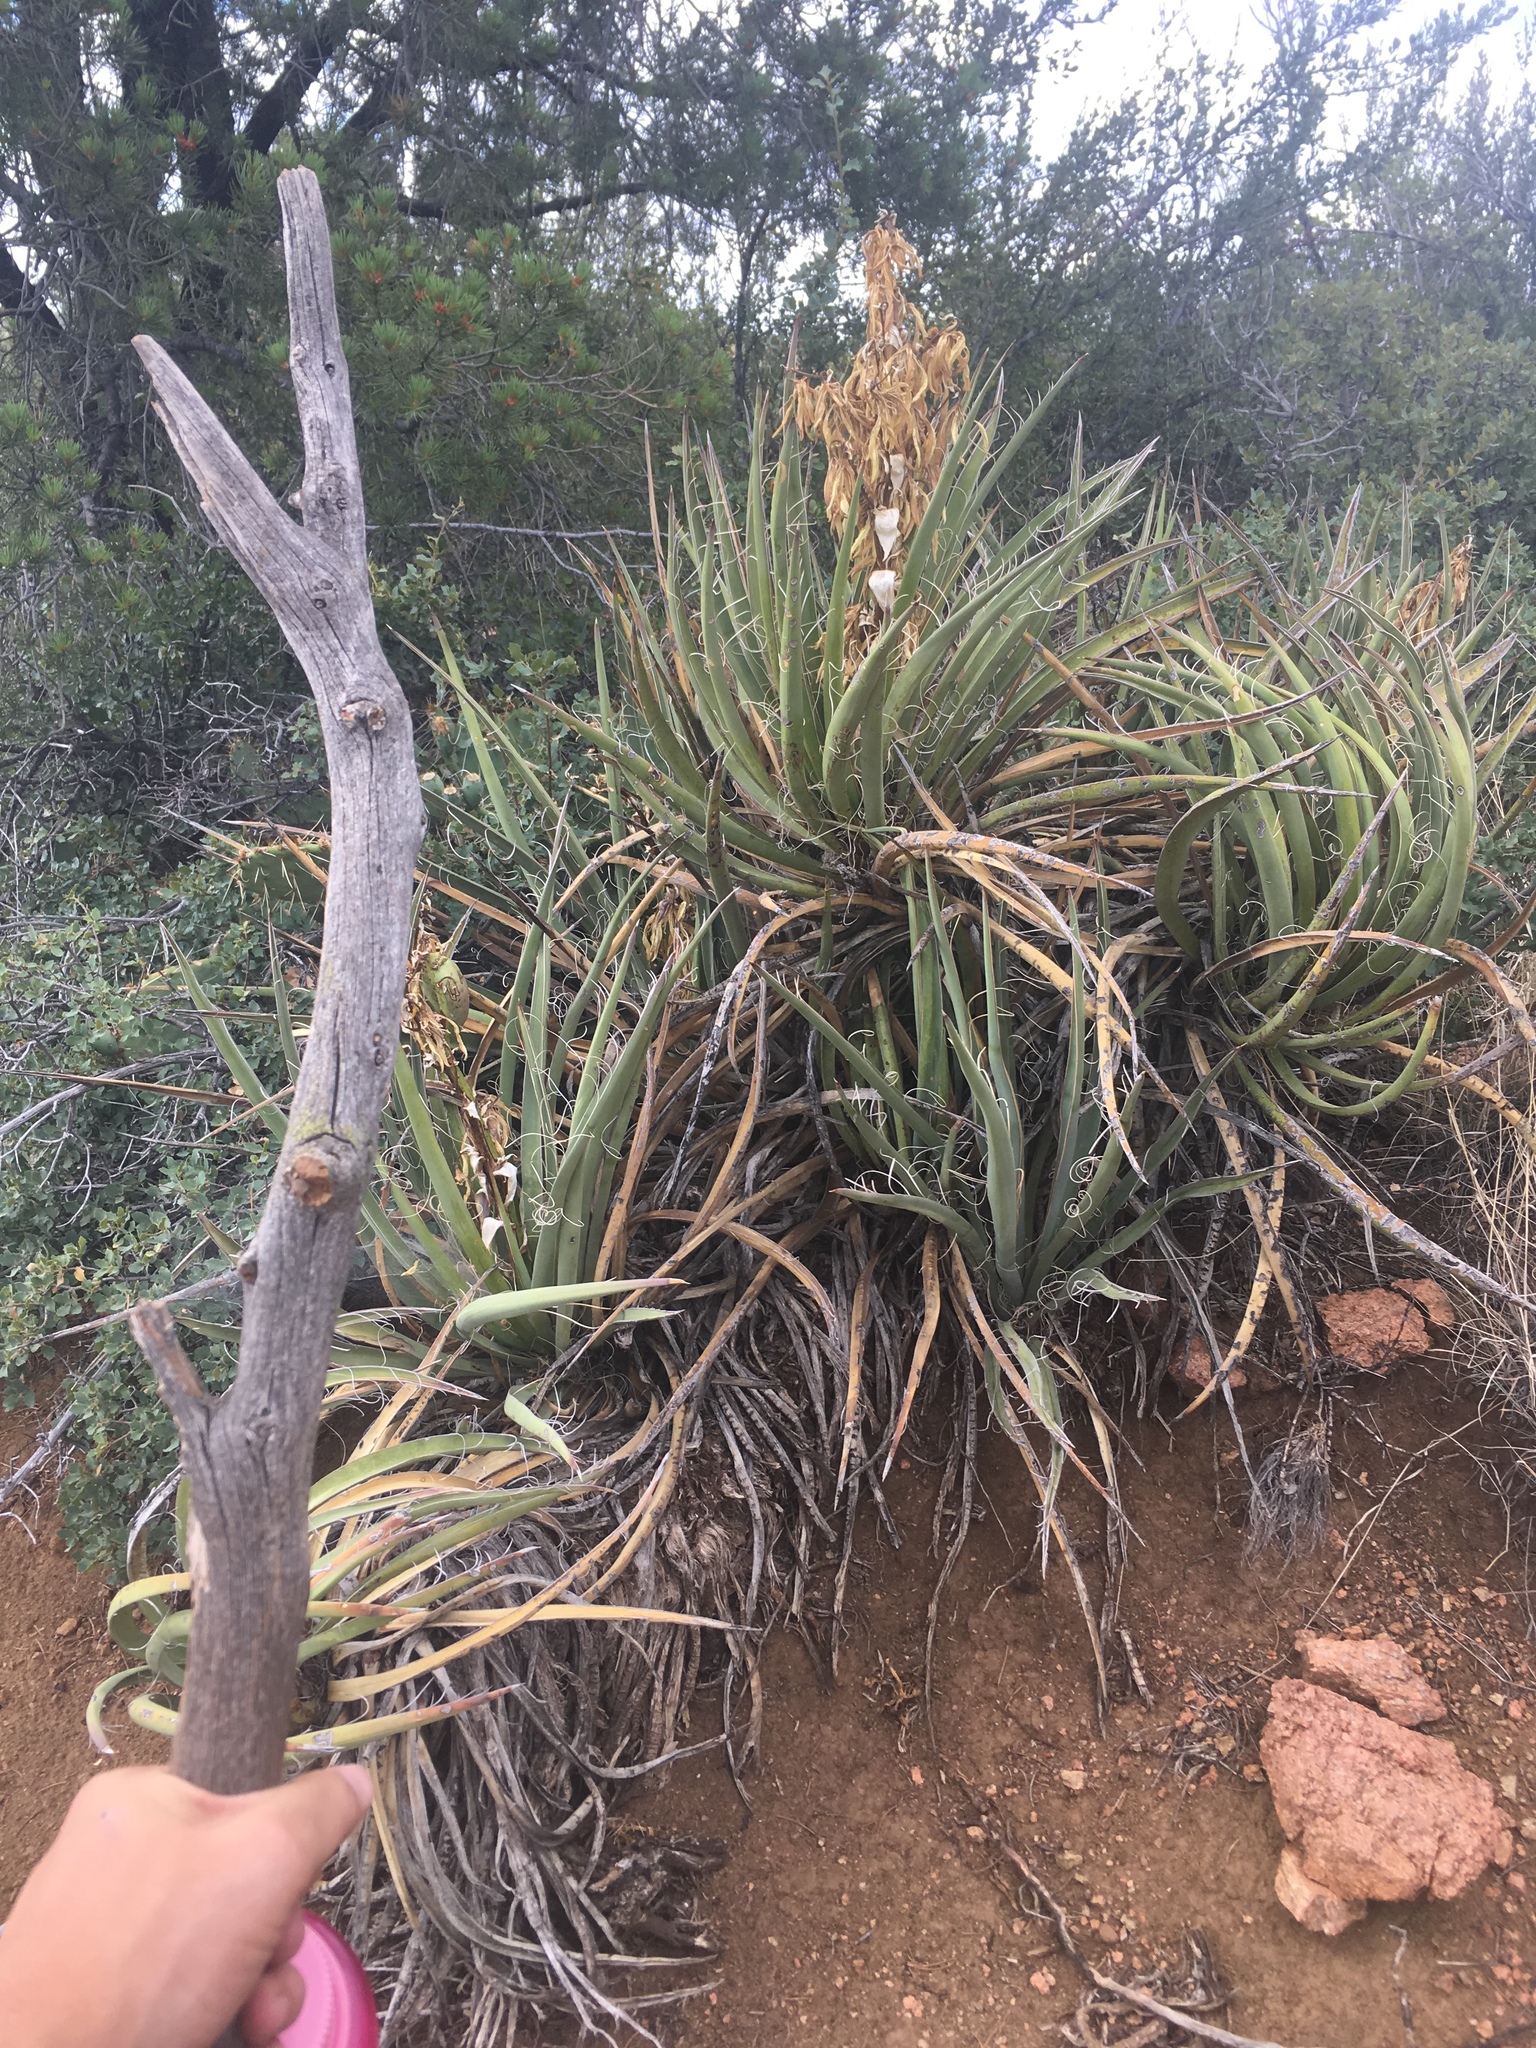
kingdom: Plantae
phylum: Tracheophyta
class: Liliopsida
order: Asparagales
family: Asparagaceae
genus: Yucca
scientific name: Yucca baccata
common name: Banana yucca
